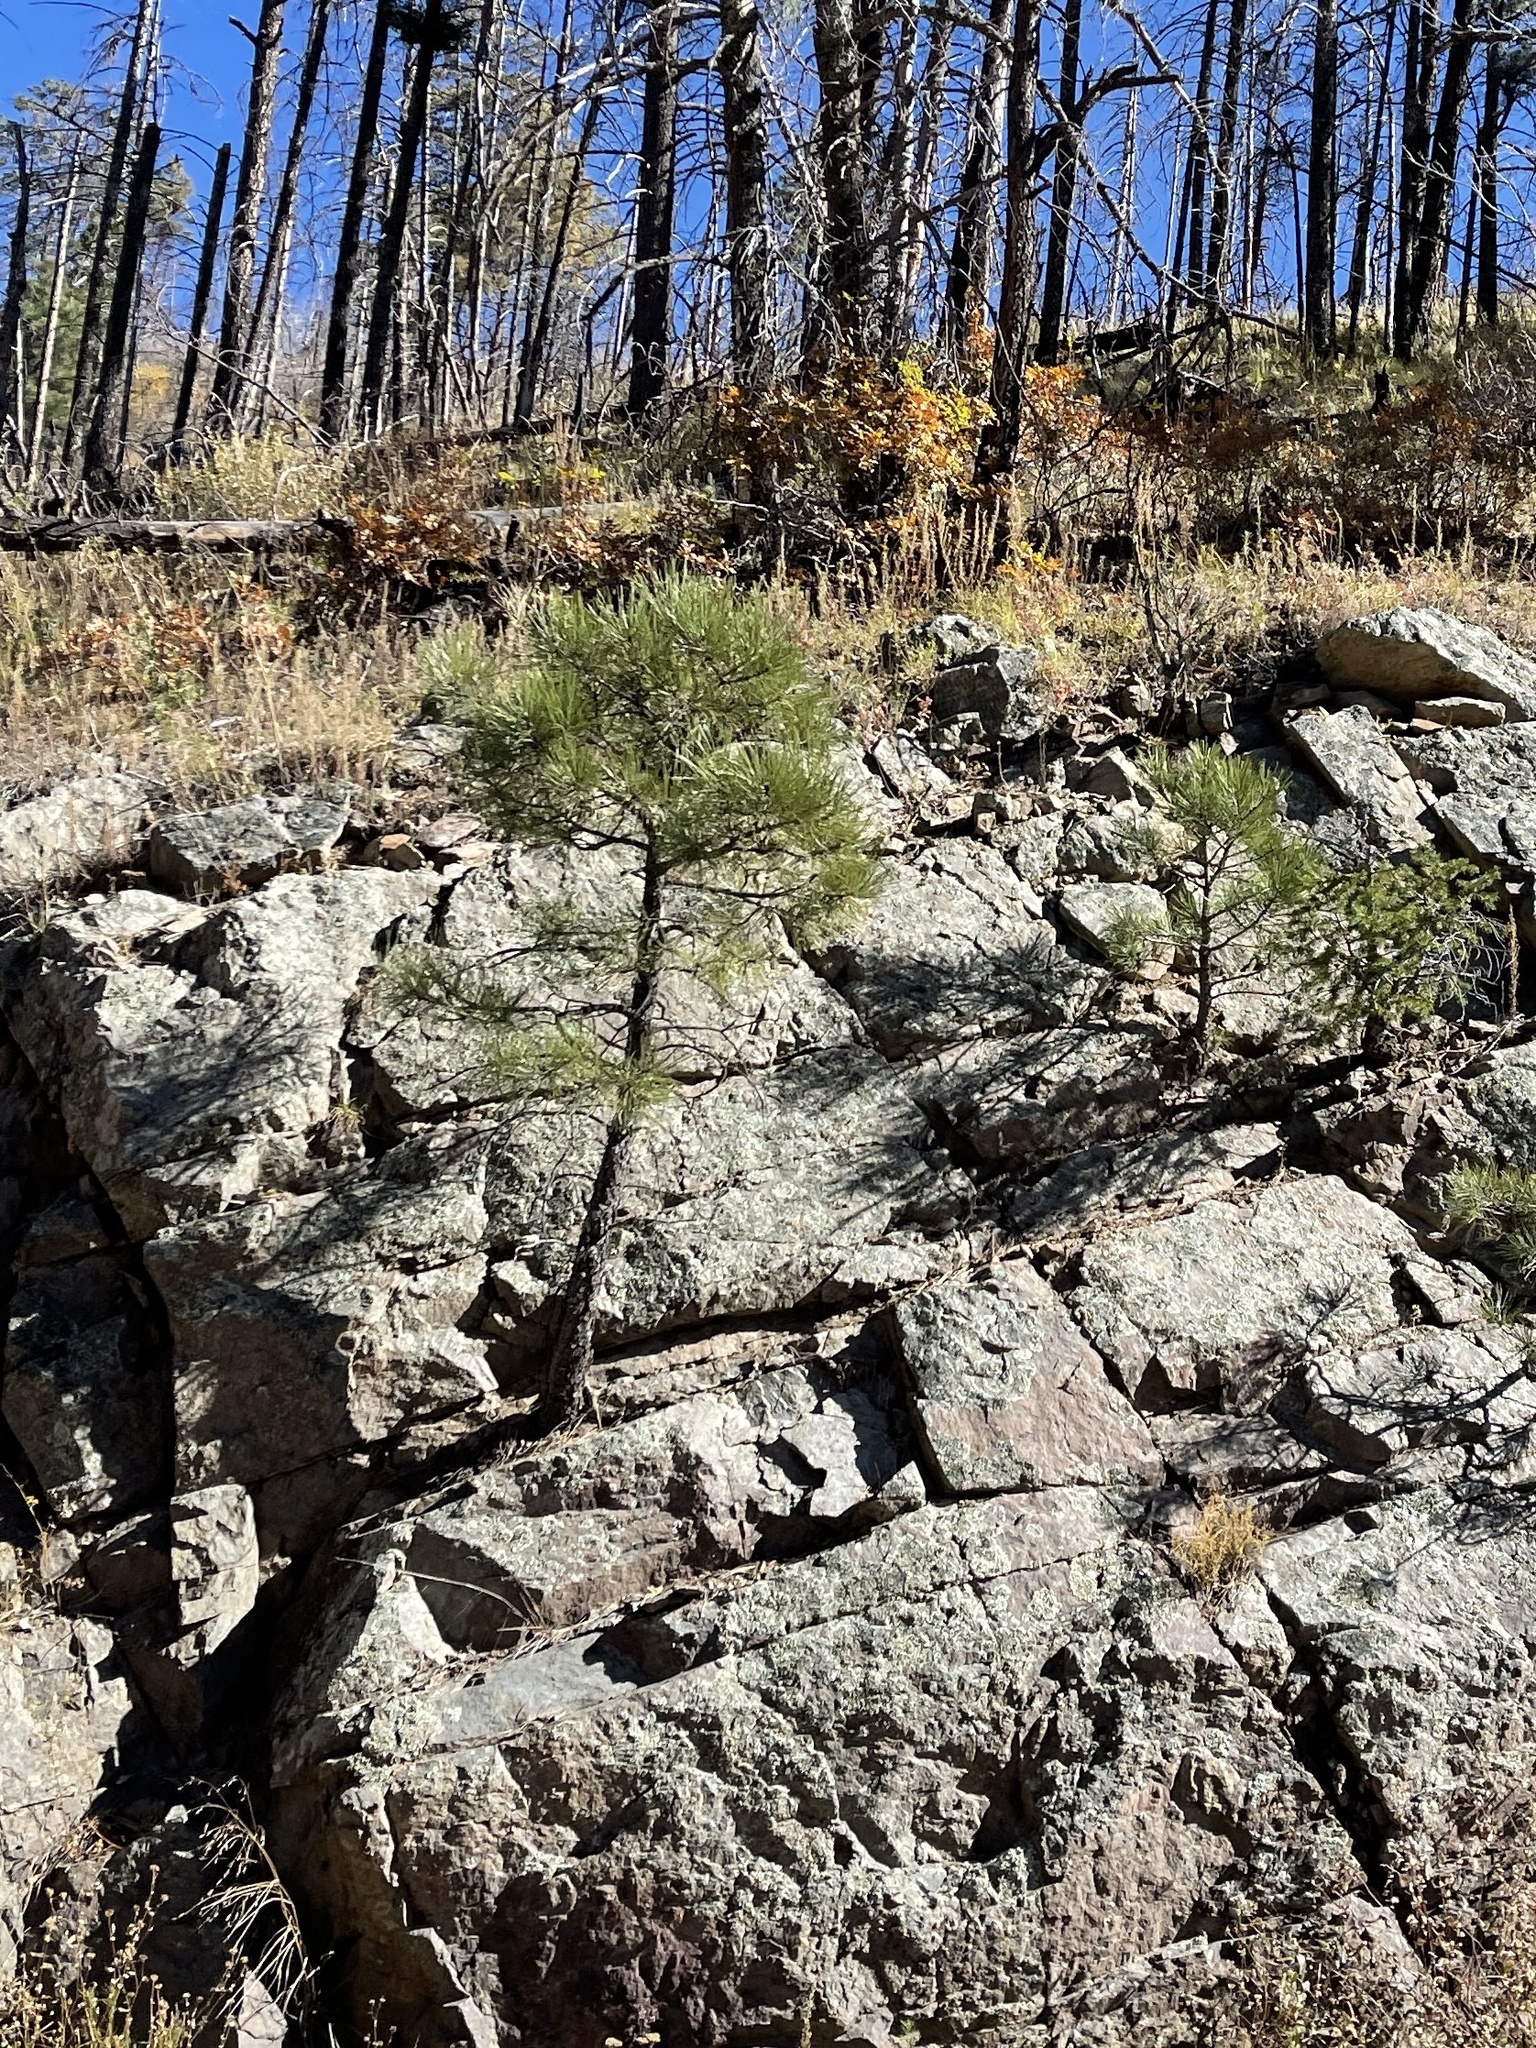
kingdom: Plantae
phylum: Tracheophyta
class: Pinopsida
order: Pinales
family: Pinaceae
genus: Pinus
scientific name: Pinus ponderosa
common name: Western yellow-pine
